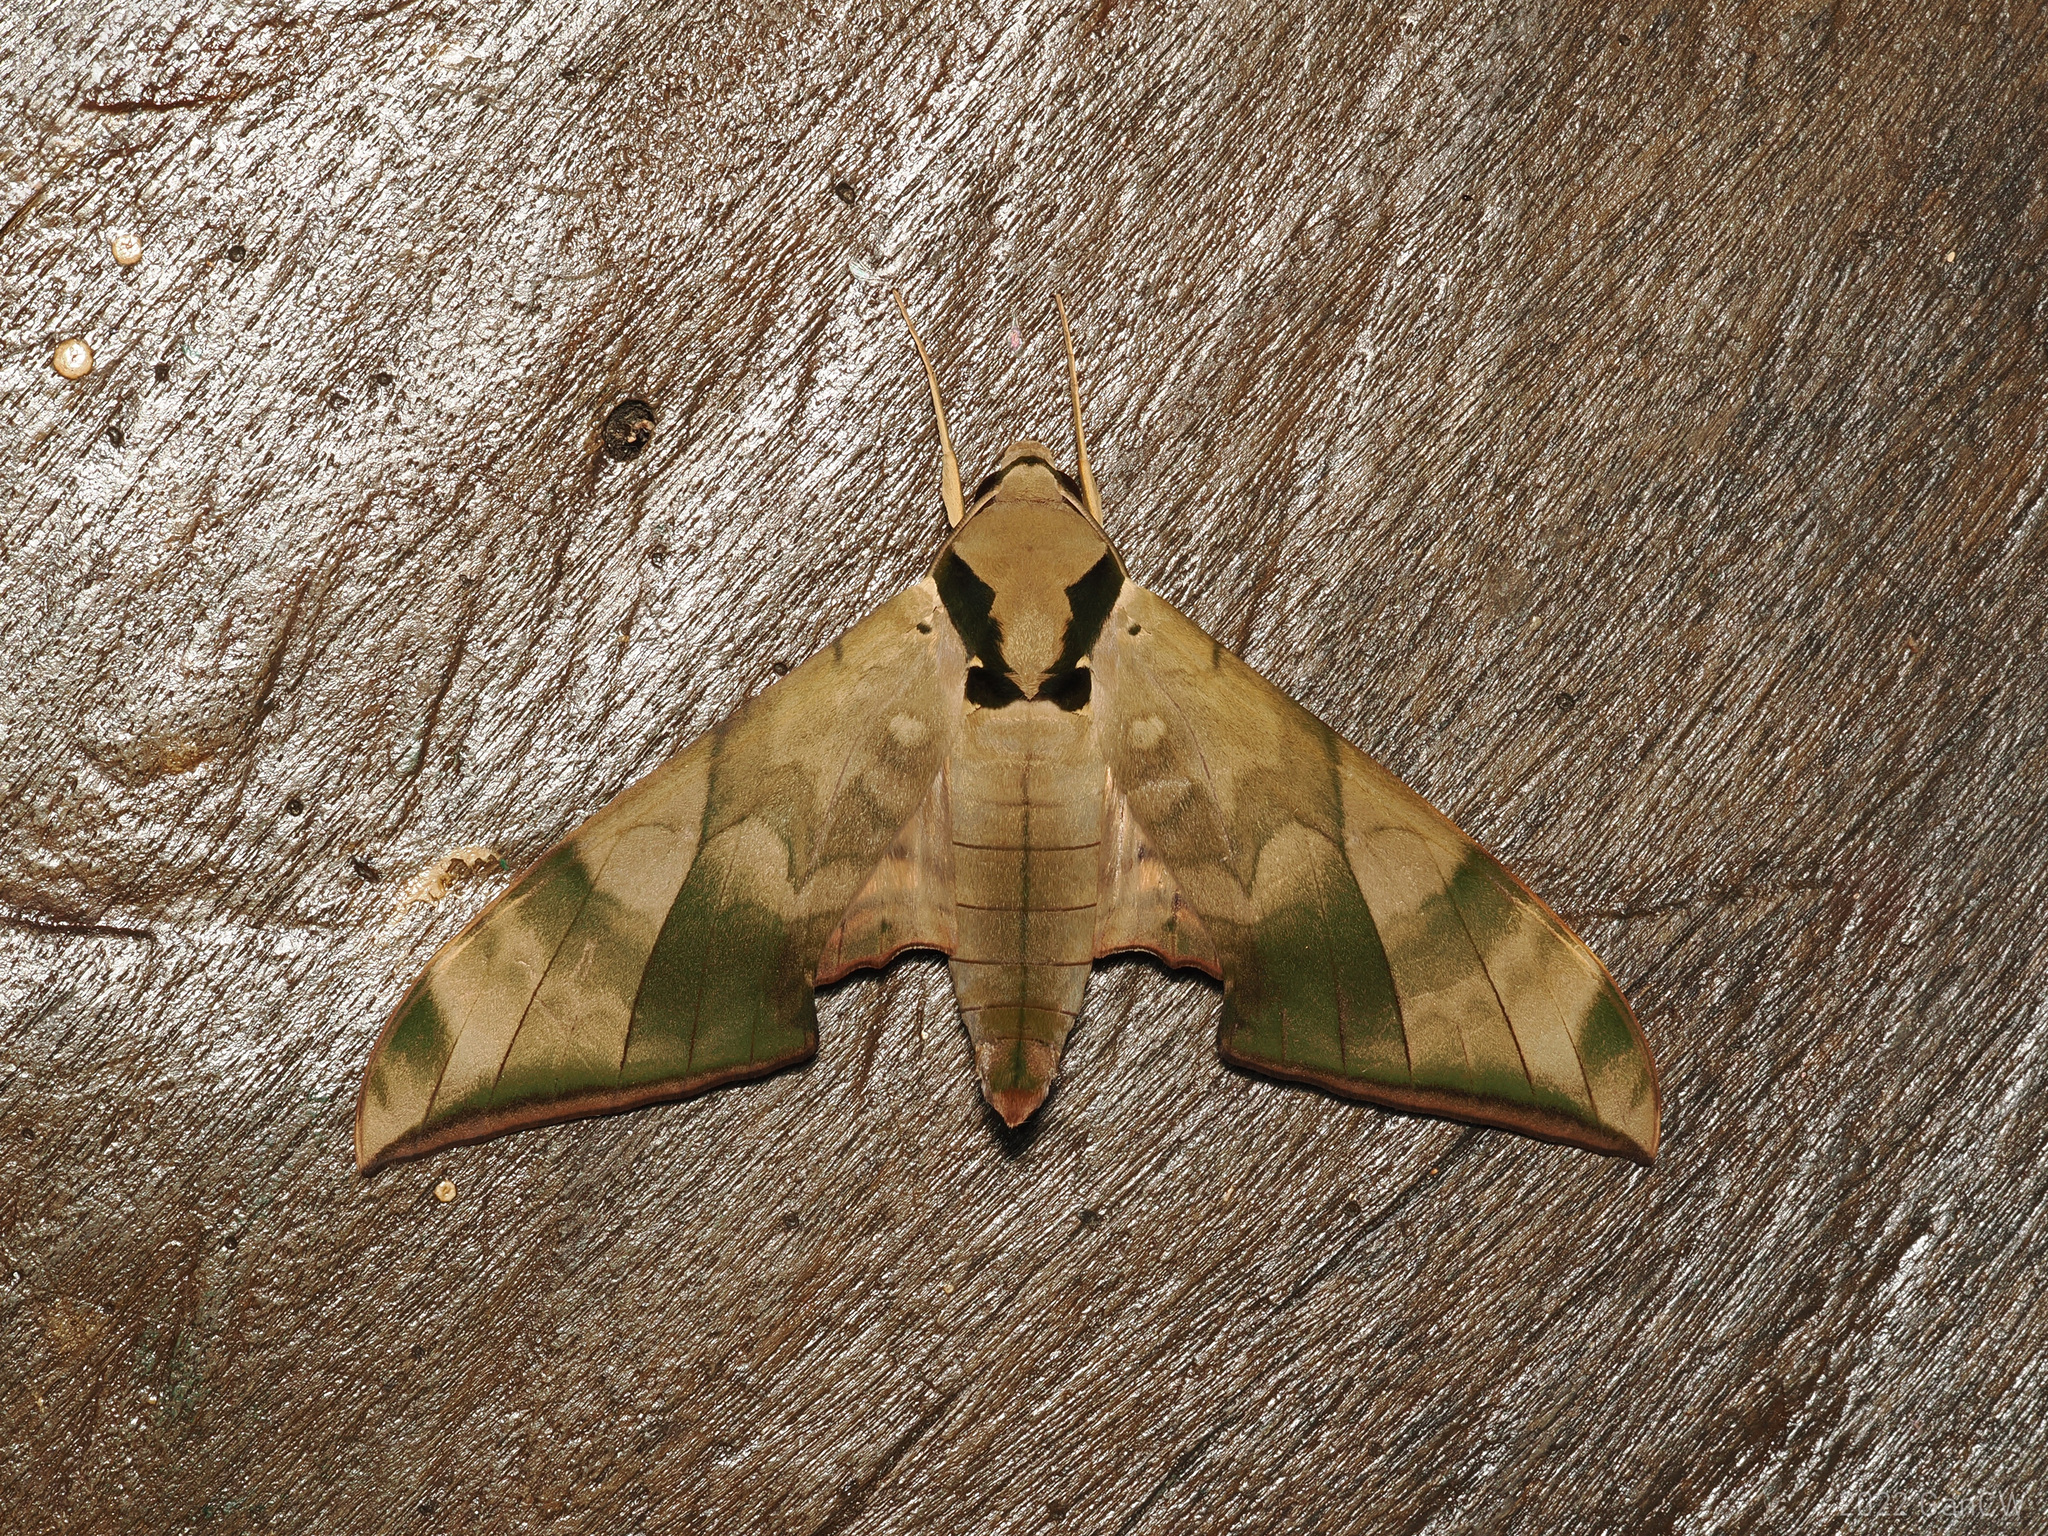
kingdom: Animalia
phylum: Arthropoda
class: Insecta
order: Lepidoptera
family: Sphingidae
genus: Ambulyx
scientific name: Ambulyx tattina
